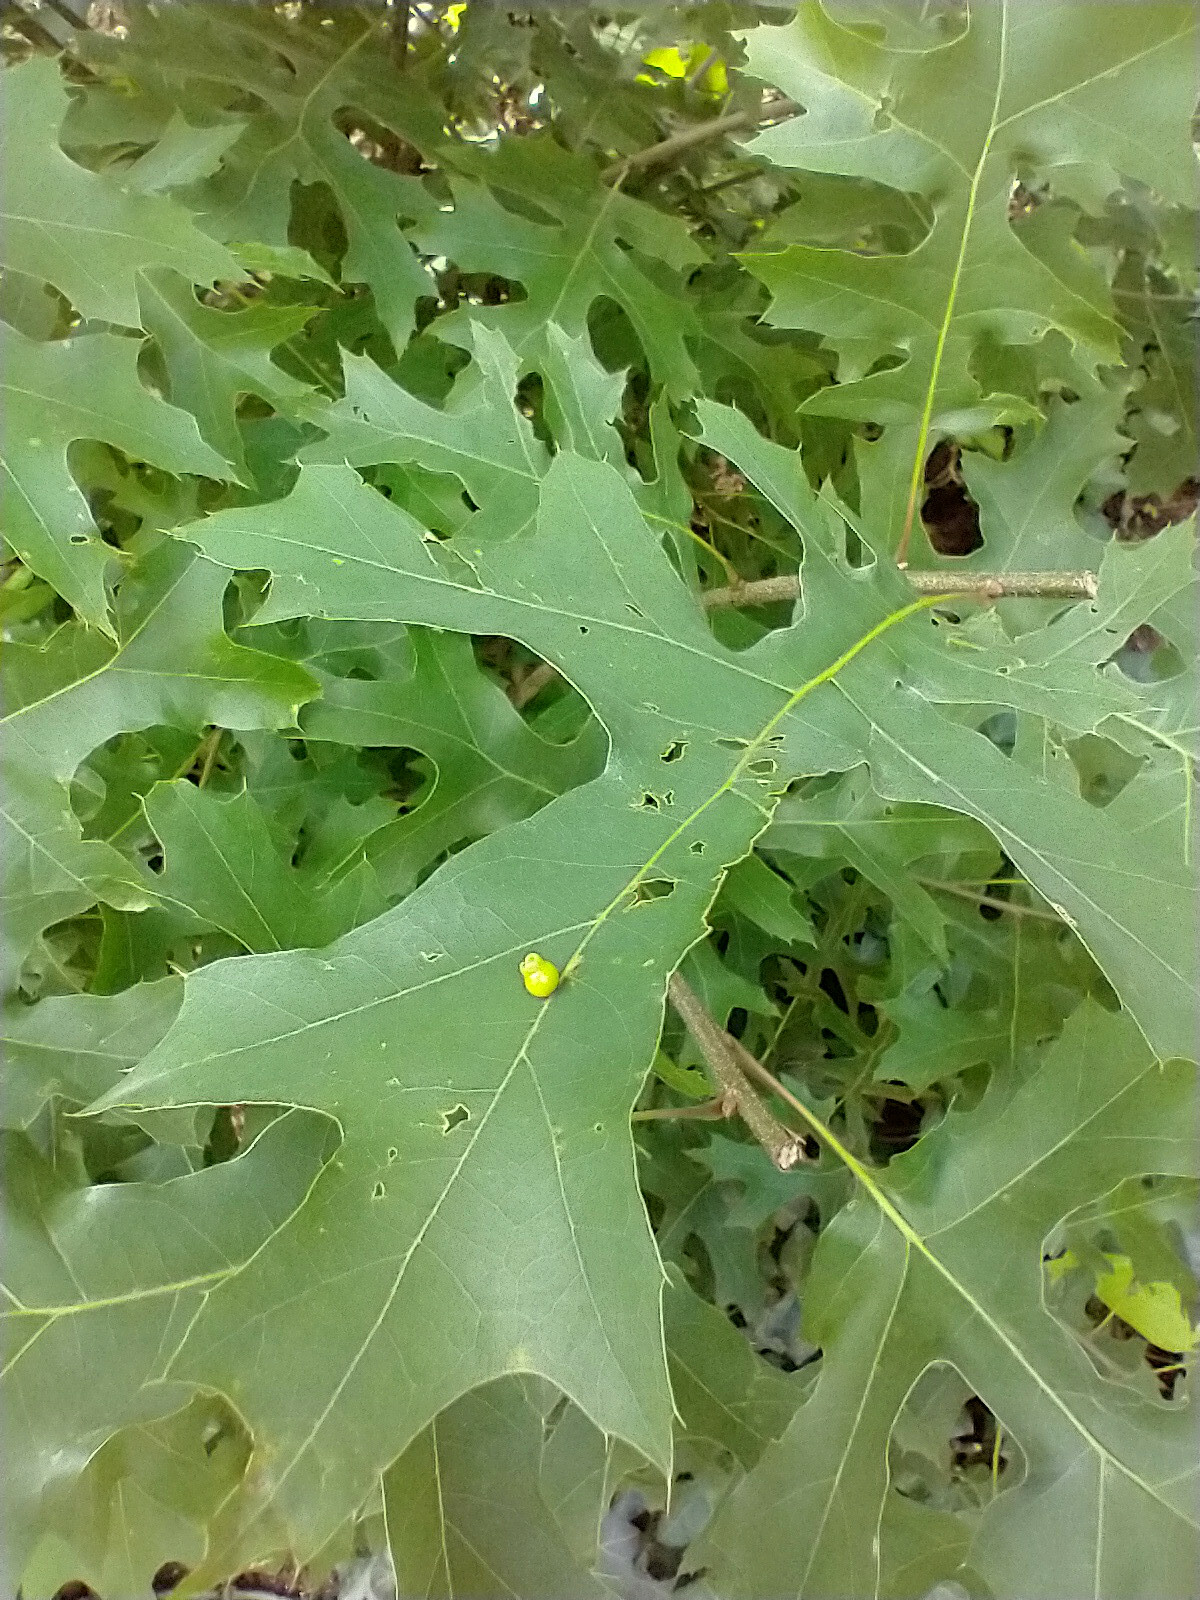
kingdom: Animalia
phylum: Arthropoda
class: Insecta
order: Hymenoptera
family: Cynipidae
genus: Kokkocynips
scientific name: Kokkocynips rileyi
